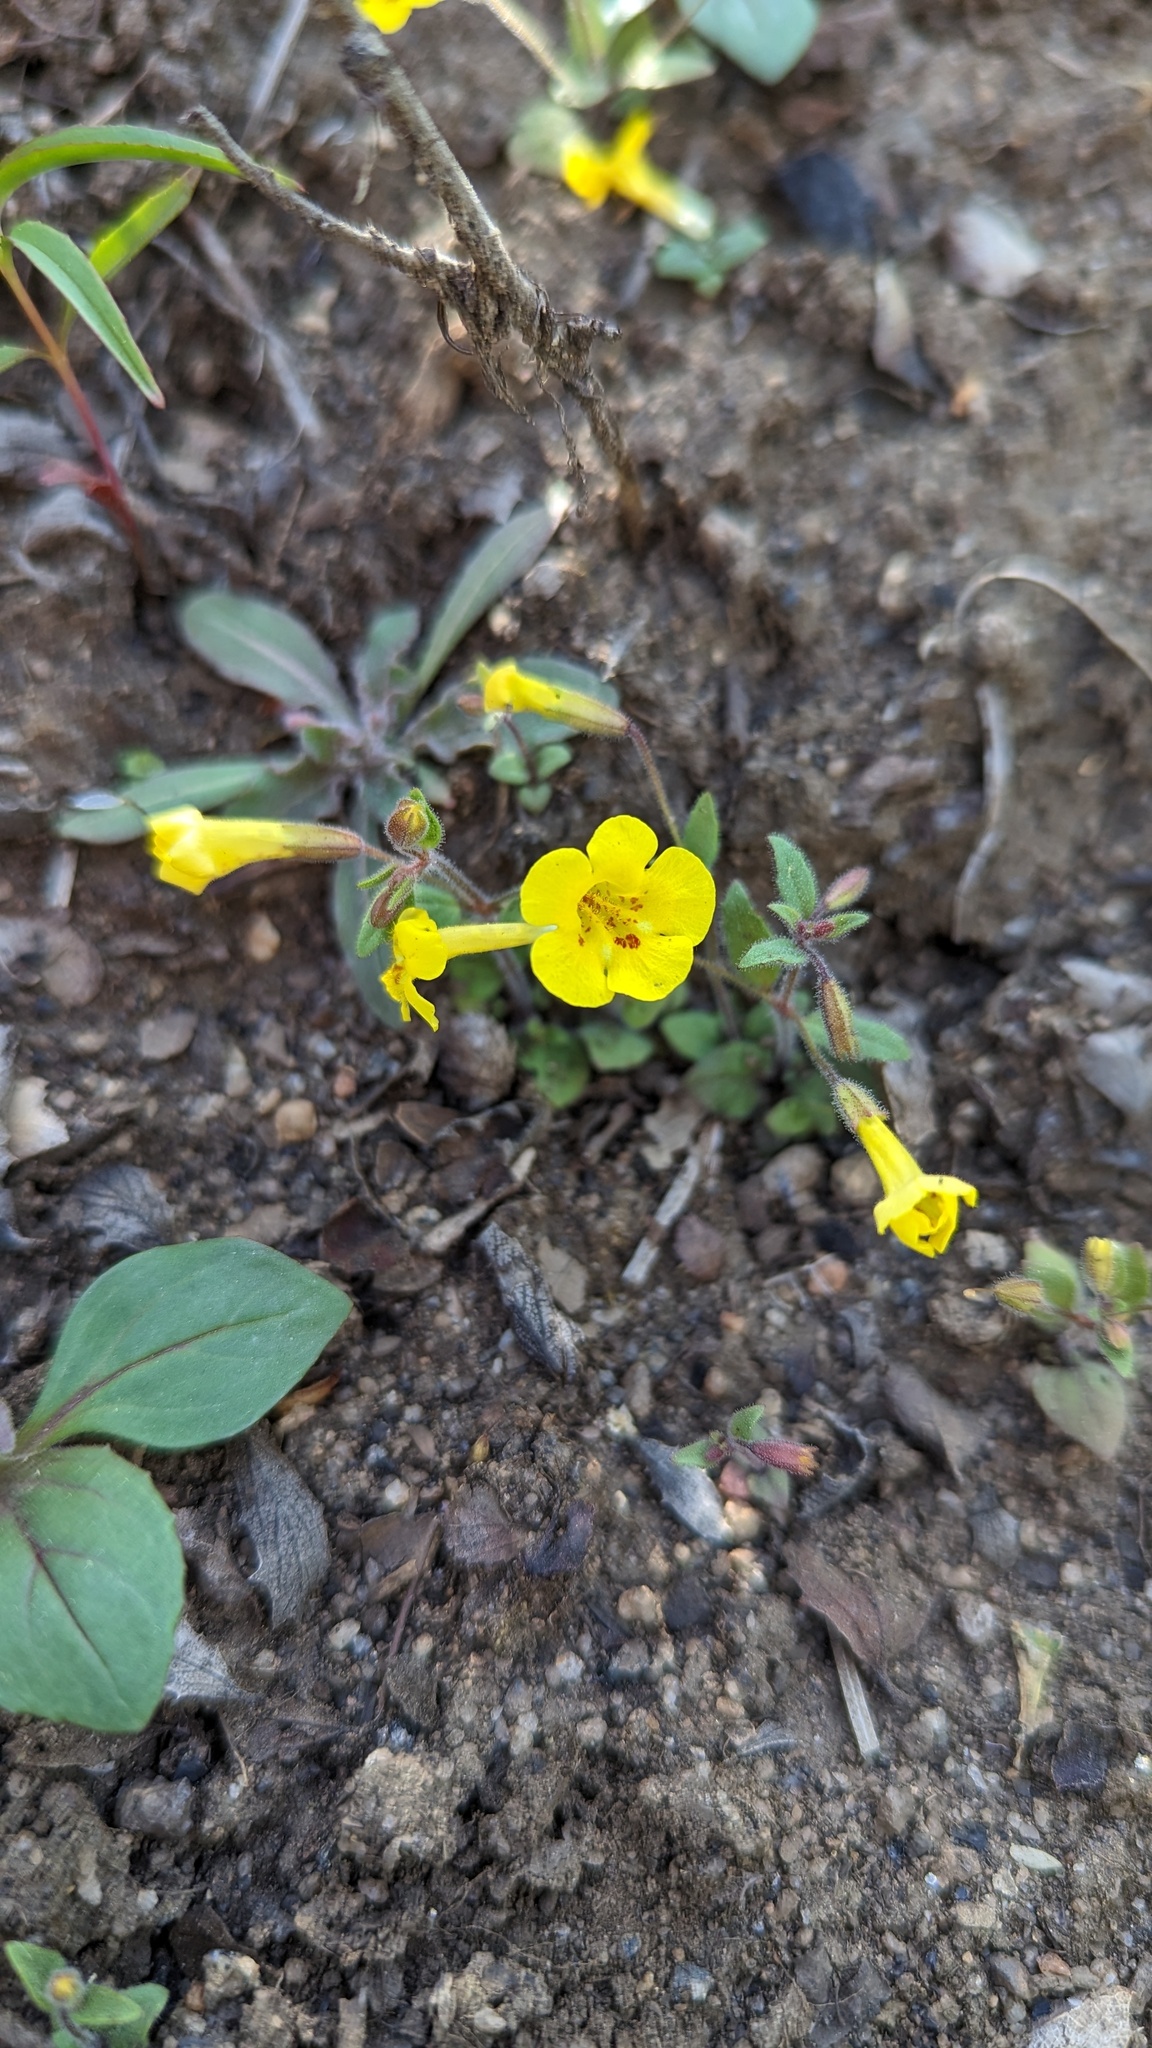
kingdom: Plantae
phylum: Tracheophyta
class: Magnoliopsida
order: Lamiales
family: Phrymaceae
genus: Erythranthe
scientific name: Erythranthe arenaria
